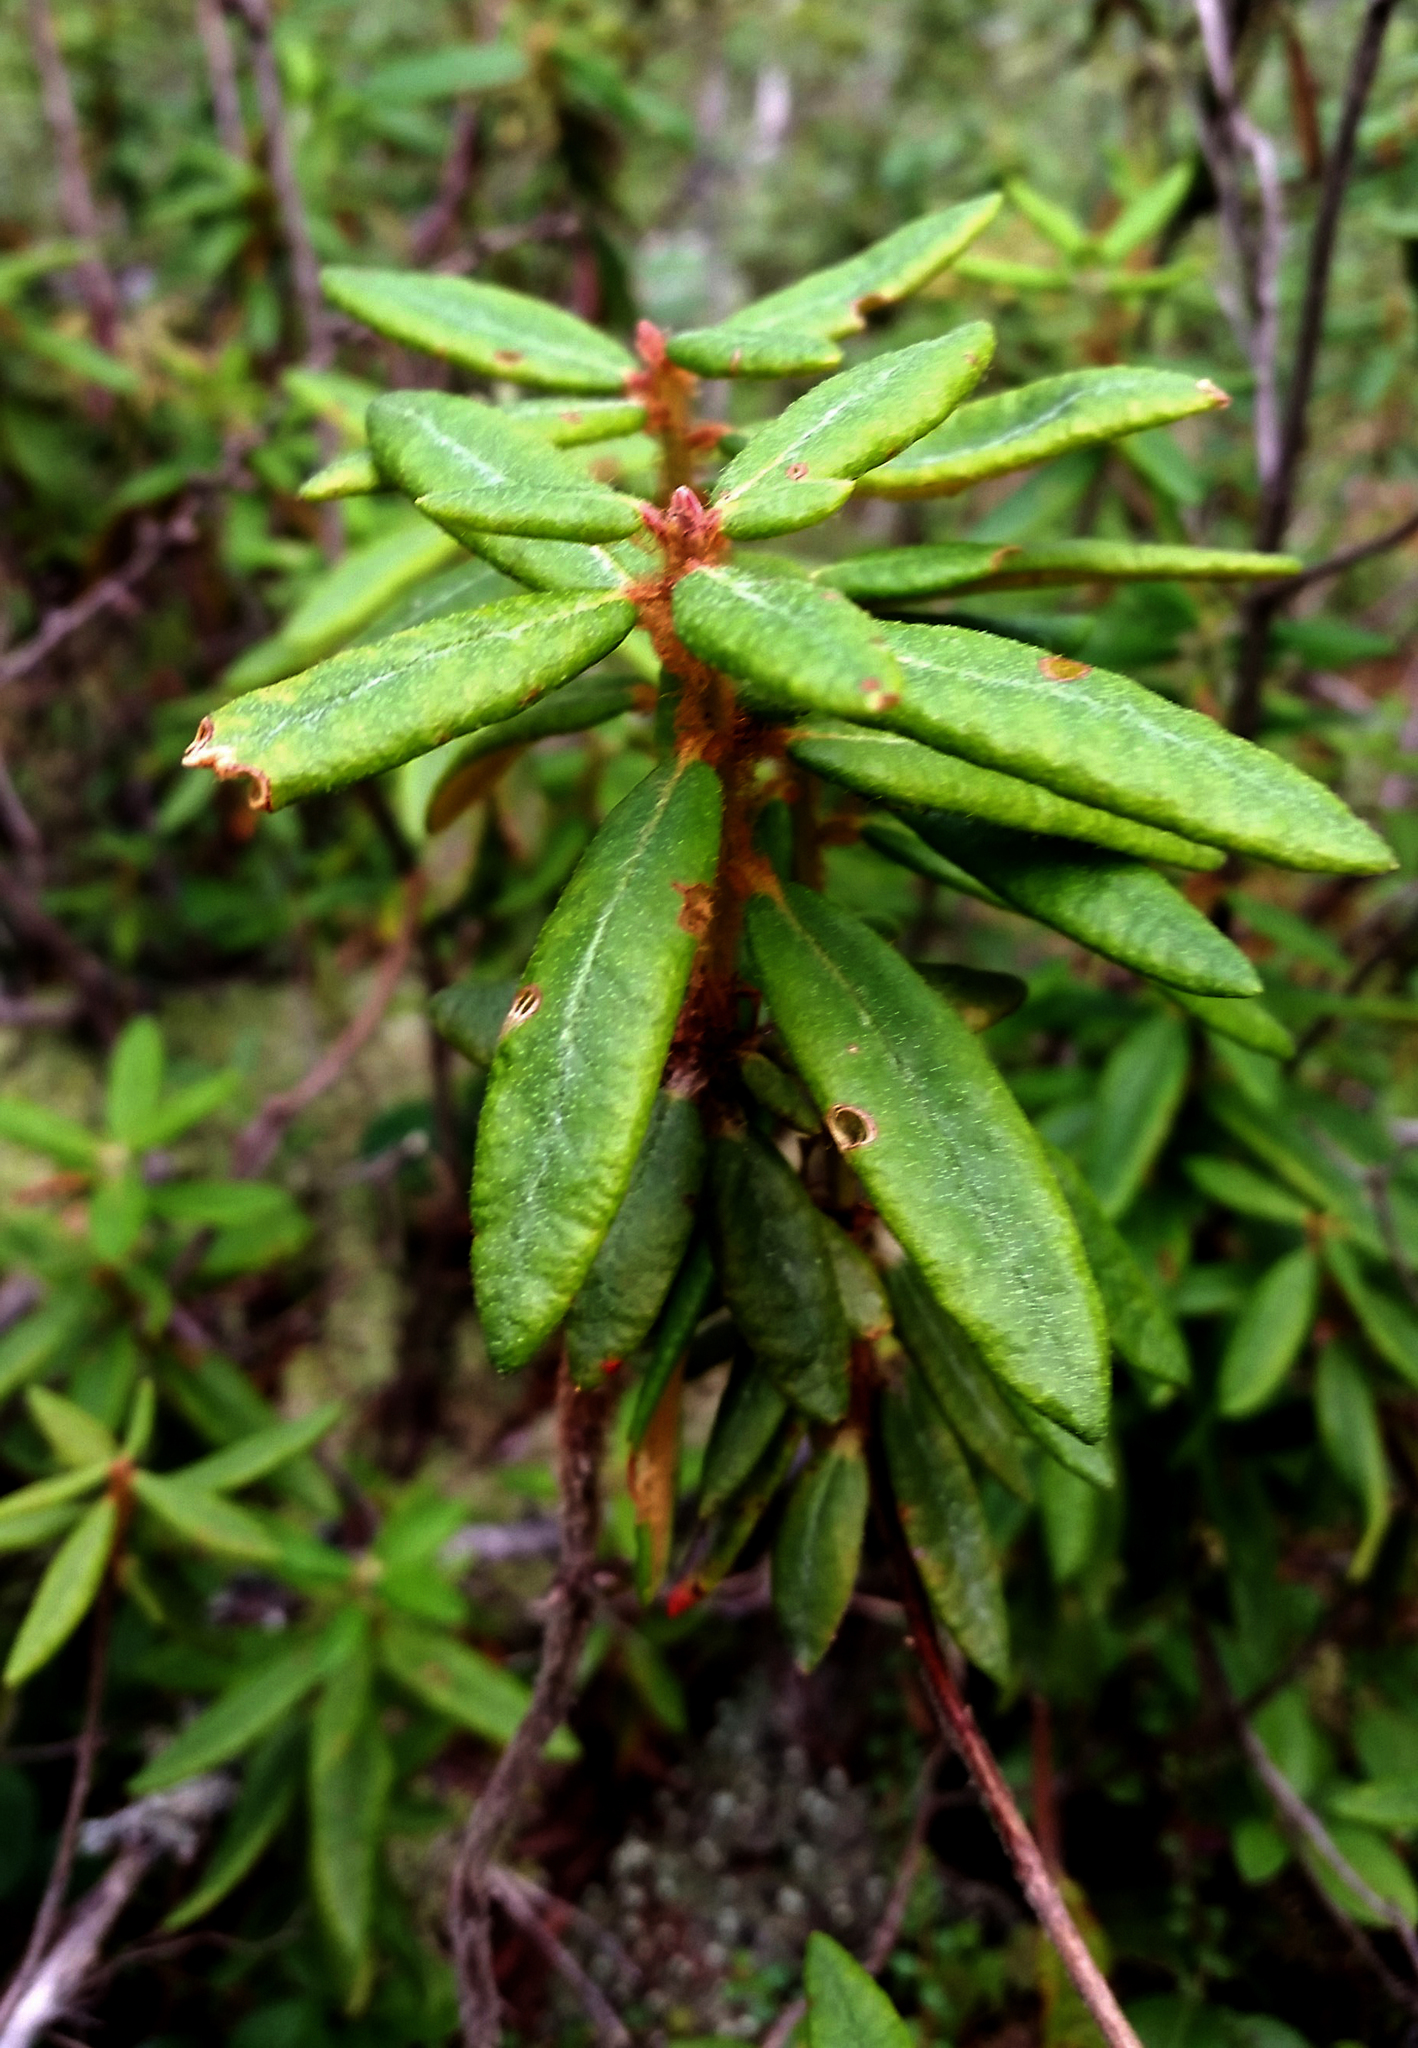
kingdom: Plantae
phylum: Tracheophyta
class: Magnoliopsida
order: Ericales
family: Ericaceae
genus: Rhododendron
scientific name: Rhododendron groenlandicum
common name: Bog labrador tea
